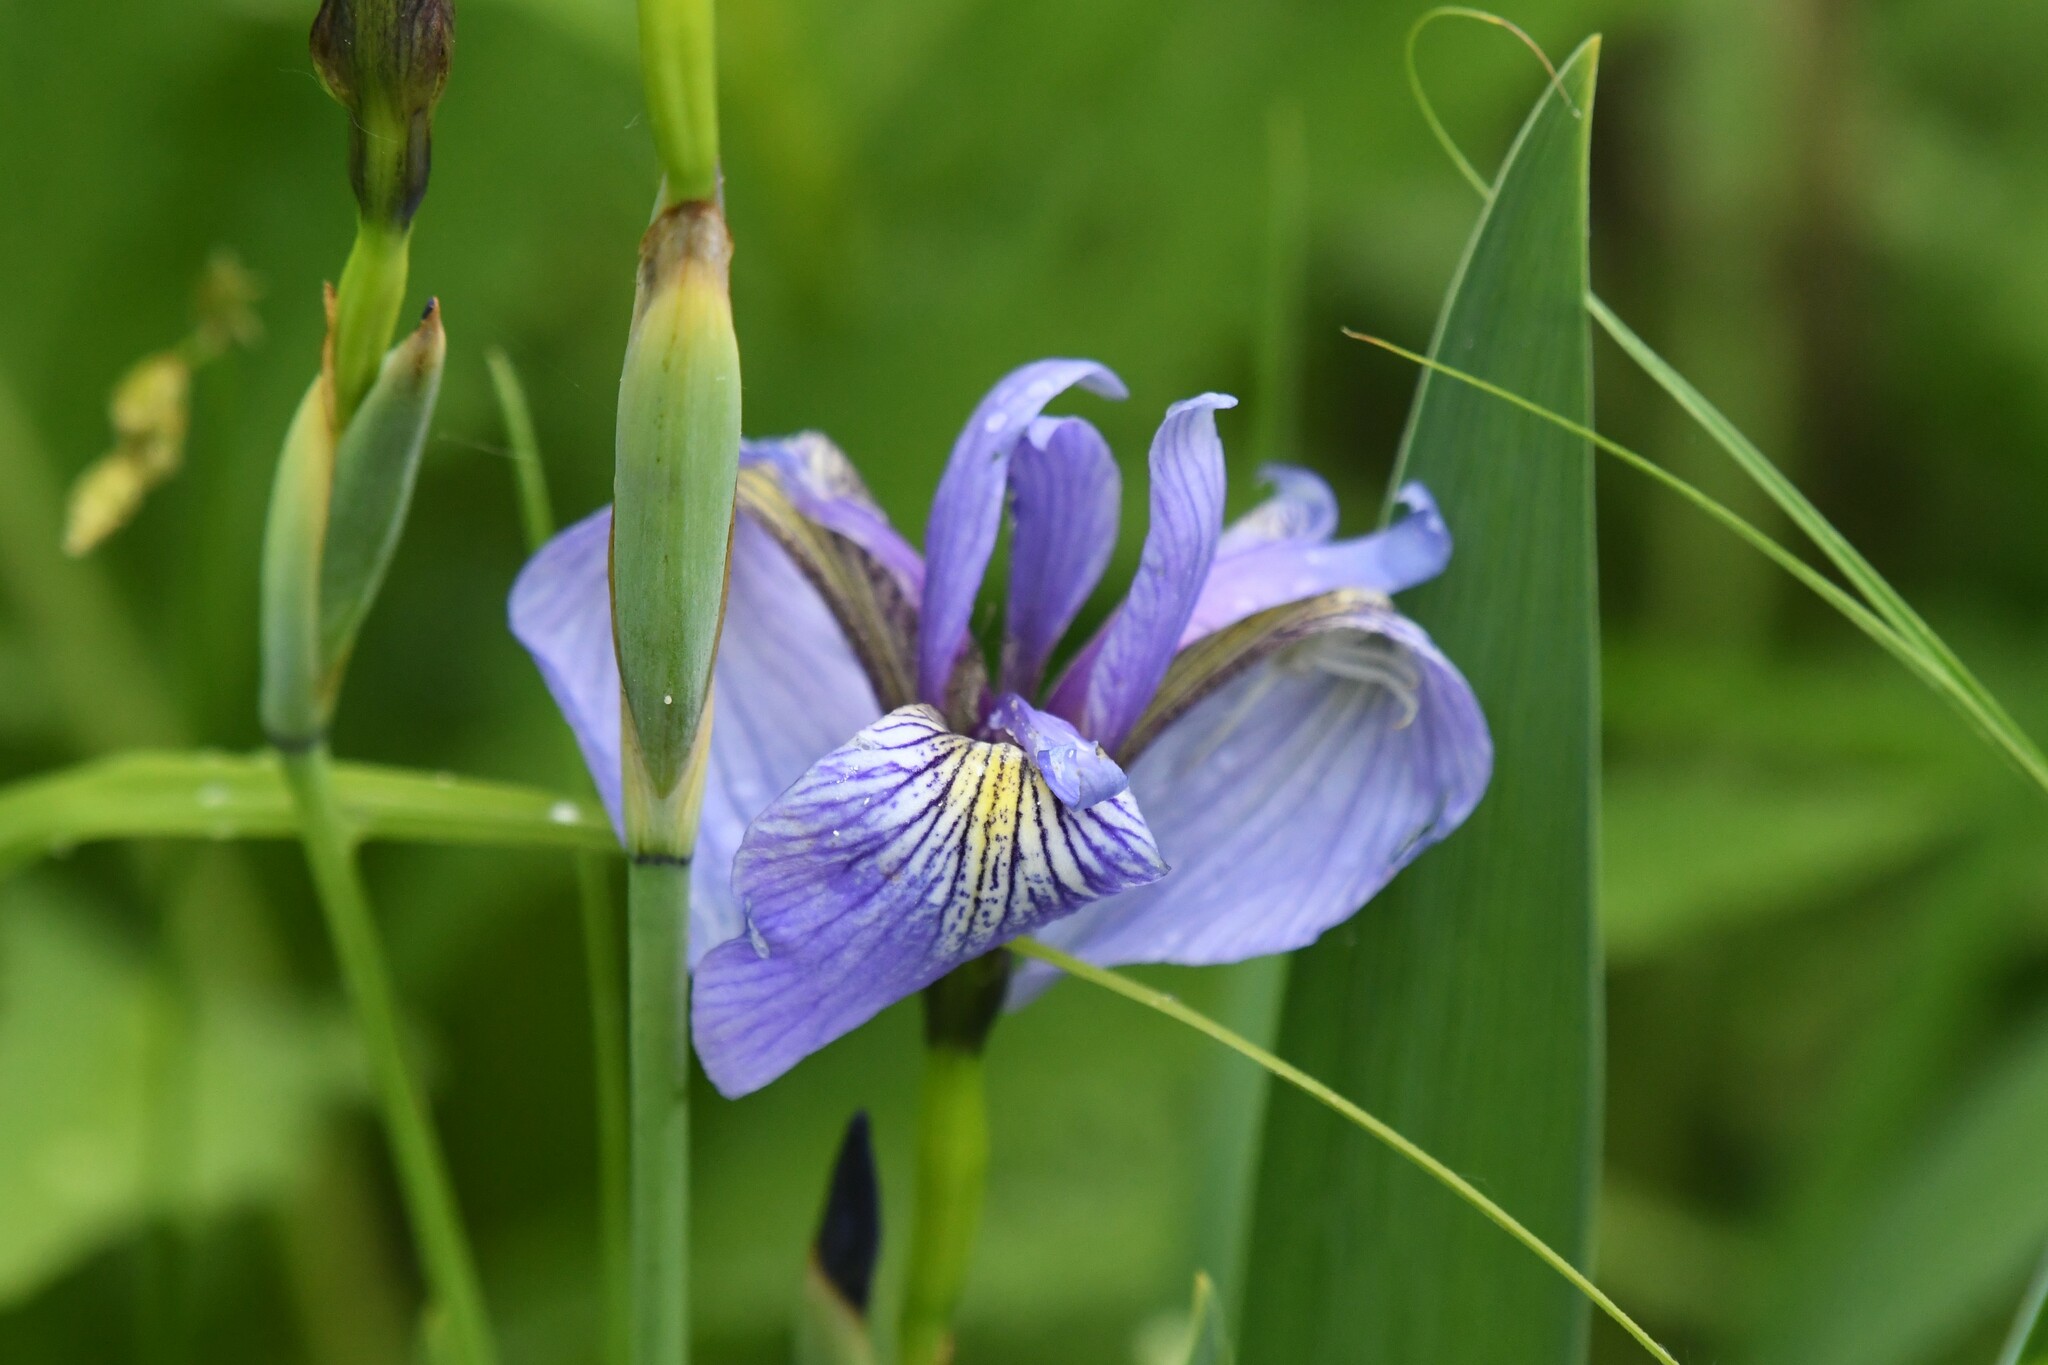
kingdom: Plantae
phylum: Tracheophyta
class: Liliopsida
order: Asparagales
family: Iridaceae
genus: Iris
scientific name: Iris versicolor
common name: Purple iris
